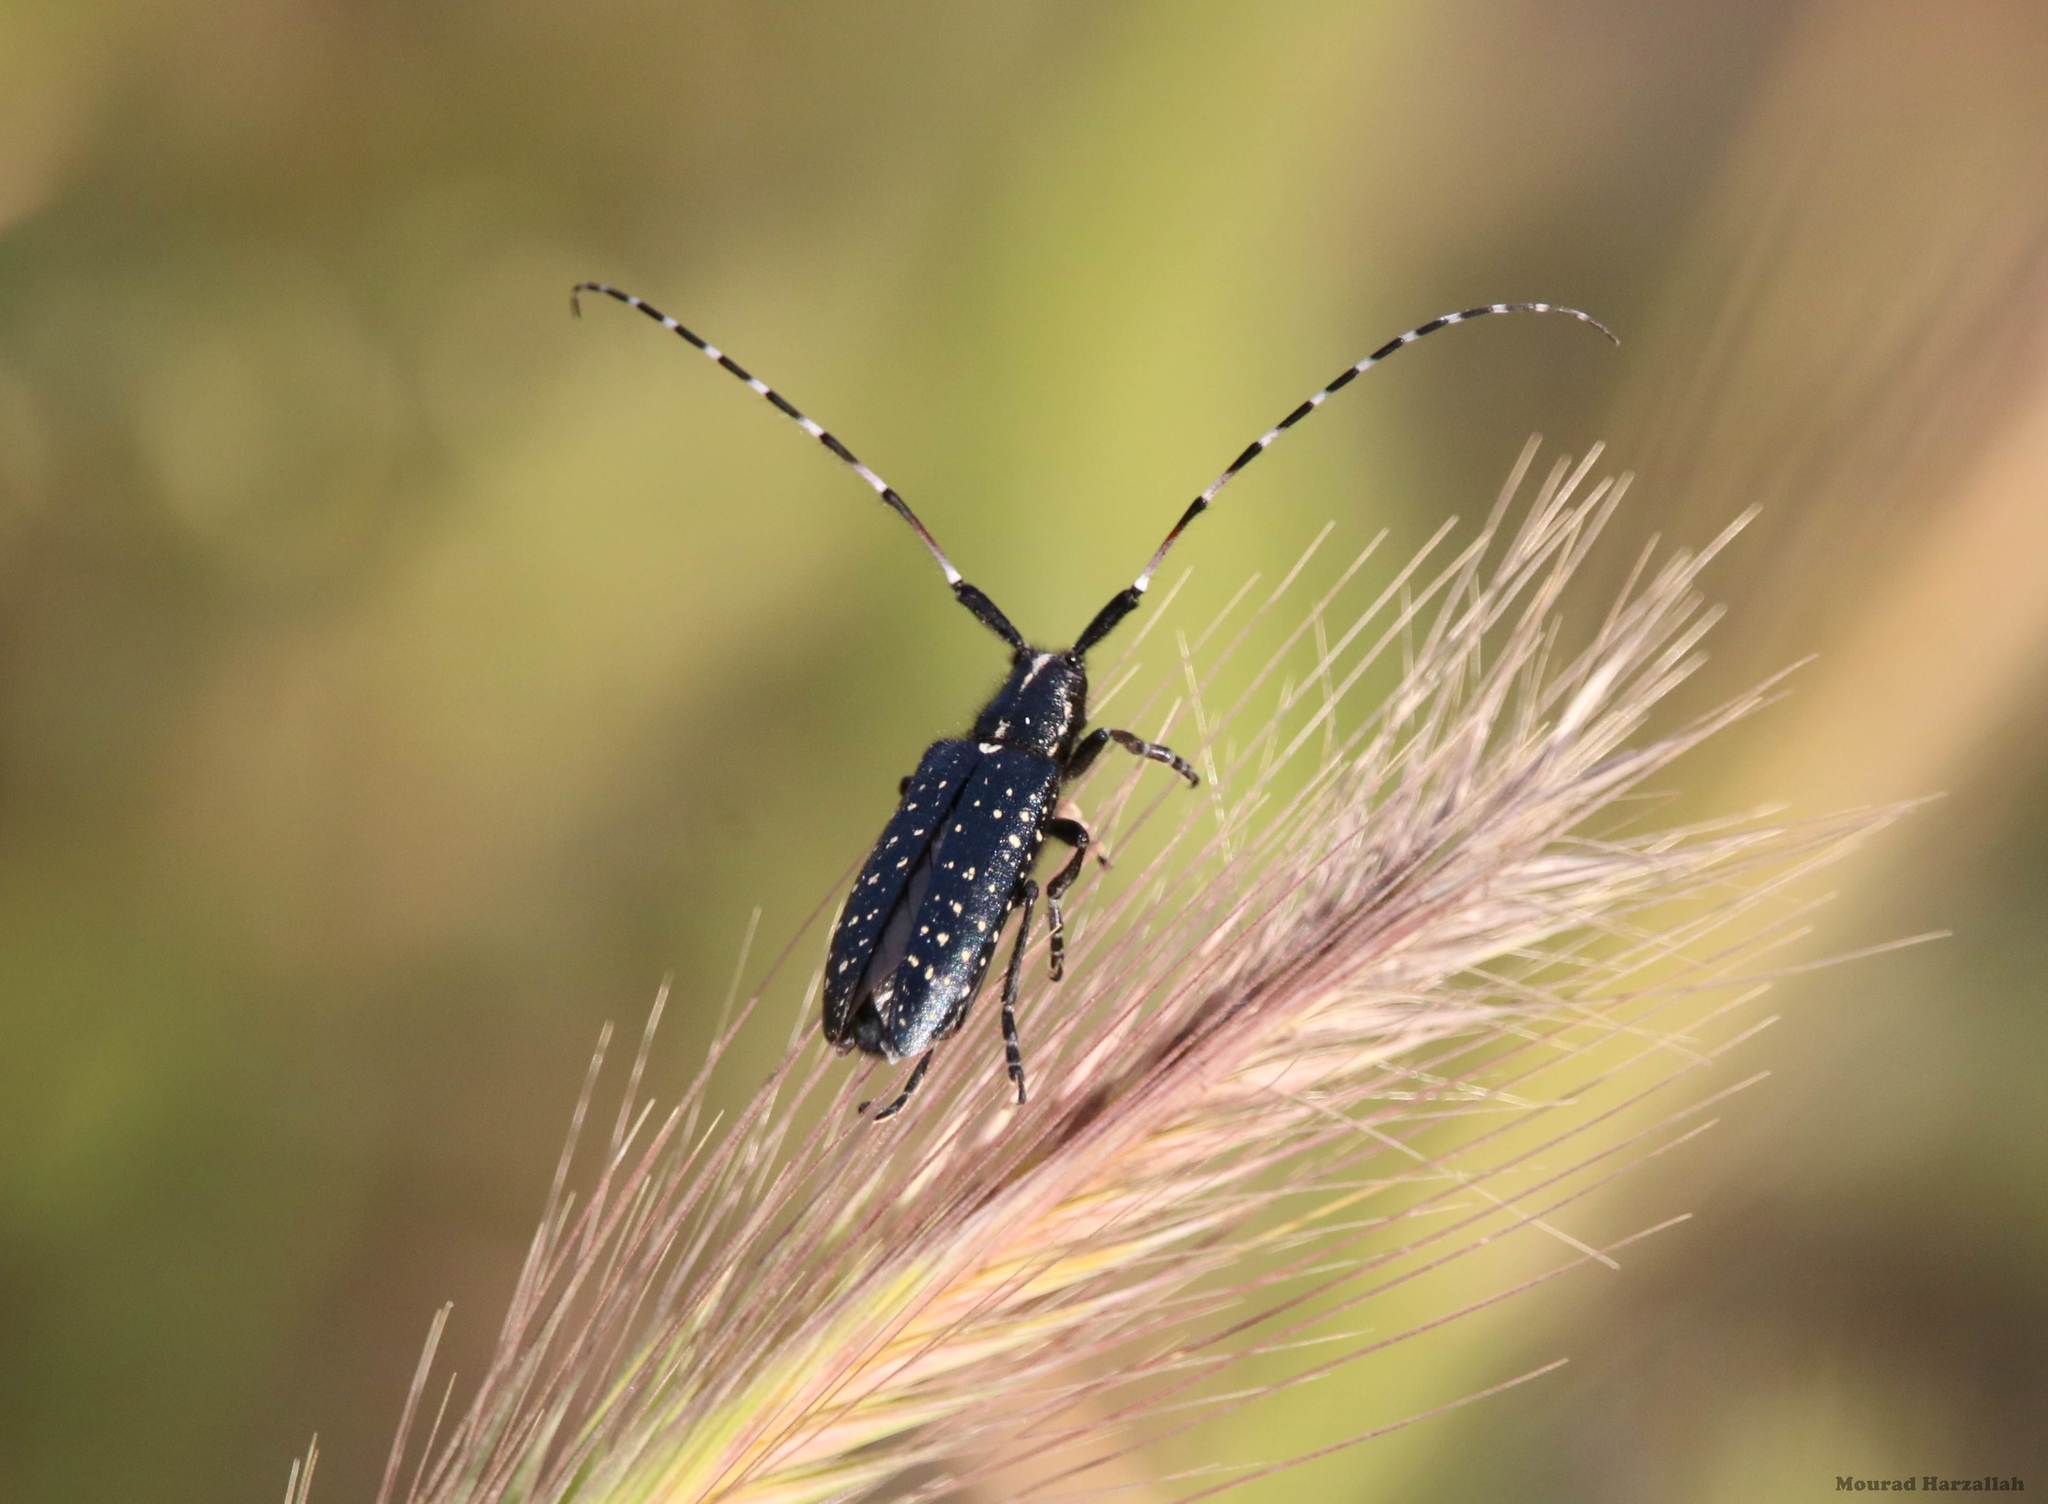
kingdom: Animalia
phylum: Arthropoda
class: Insecta
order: Coleoptera
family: Cerambycidae
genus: Agapanthia
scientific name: Agapanthia irrorata
